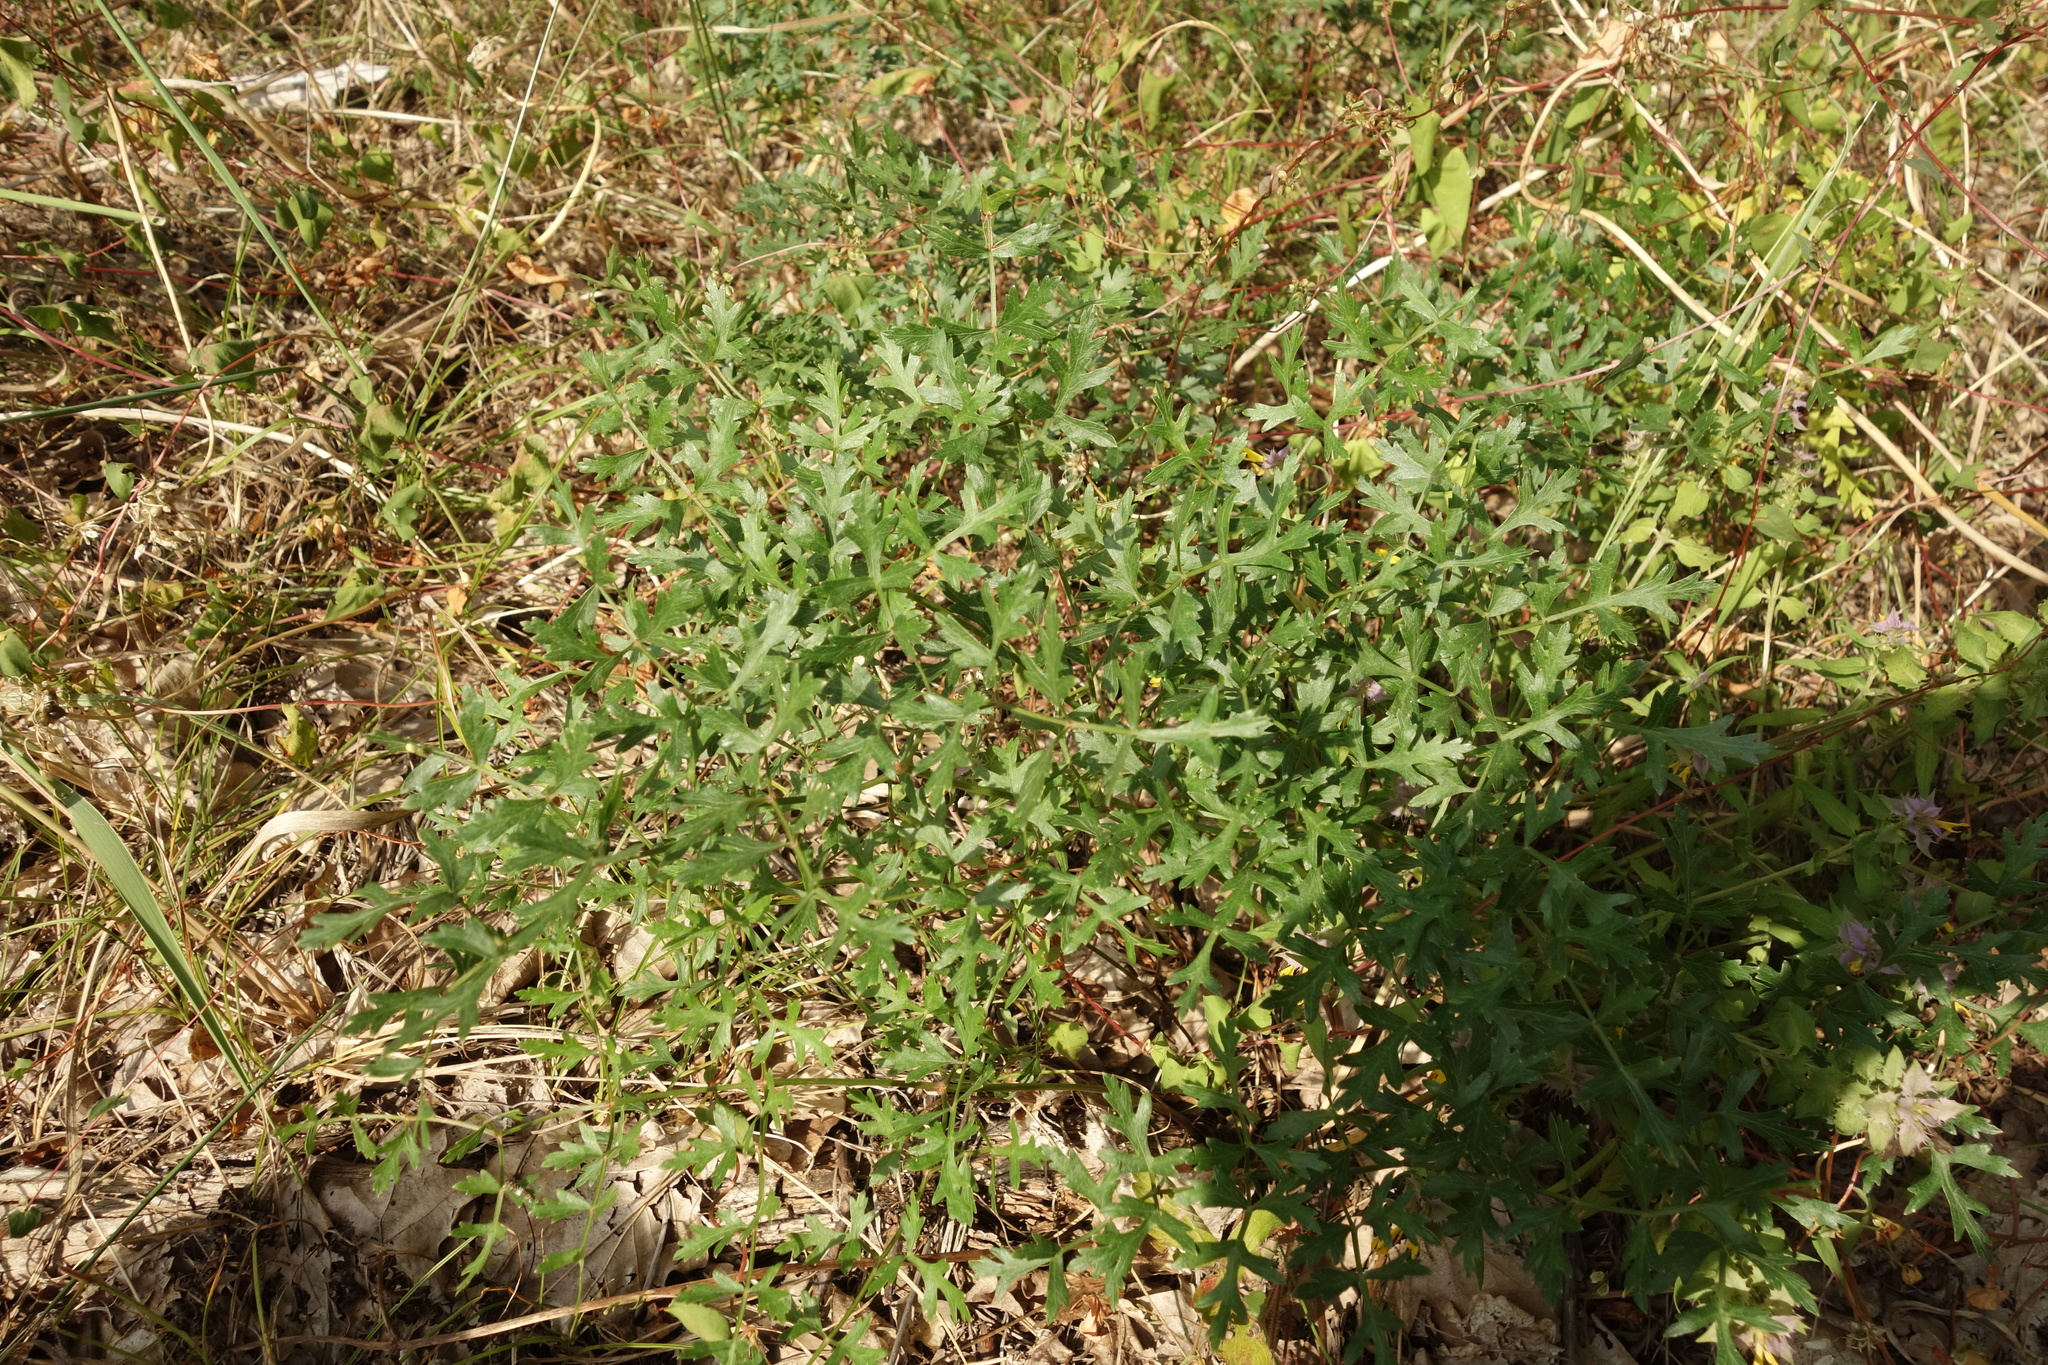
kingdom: Plantae
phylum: Tracheophyta
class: Magnoliopsida
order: Apiales
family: Apiaceae
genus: Oreoselinum
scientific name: Oreoselinum nigrum
